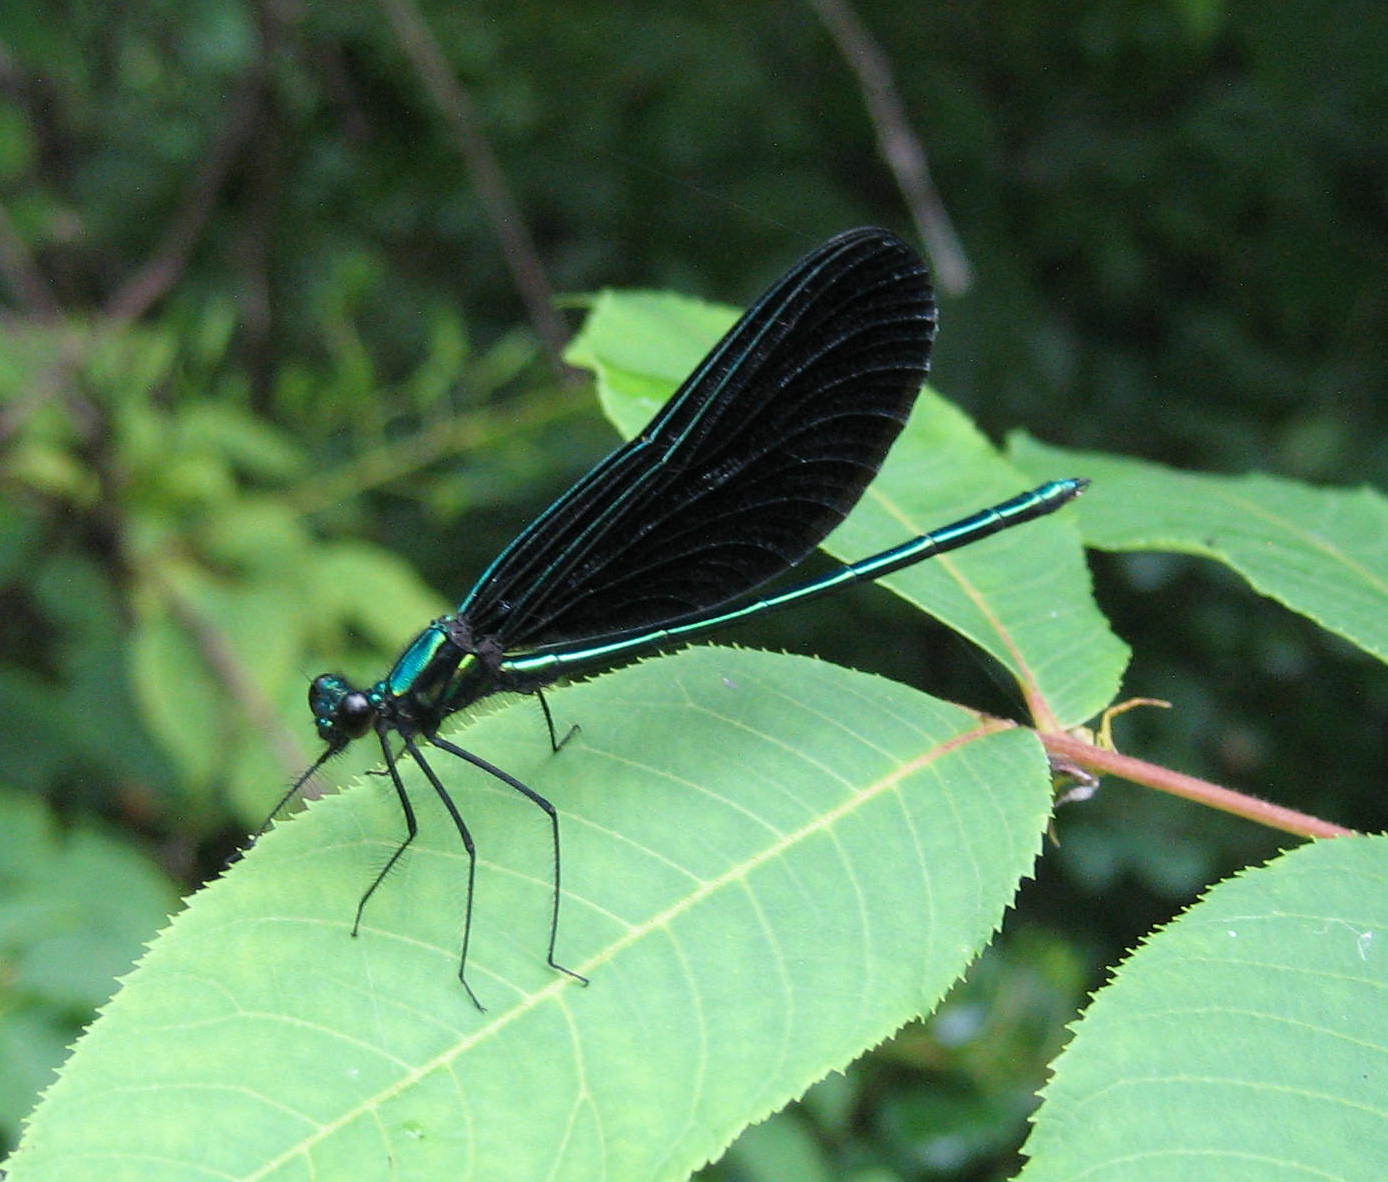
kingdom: Animalia
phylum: Arthropoda
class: Insecta
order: Odonata
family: Calopterygidae
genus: Calopteryx
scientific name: Calopteryx maculata
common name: Ebony jewelwing
